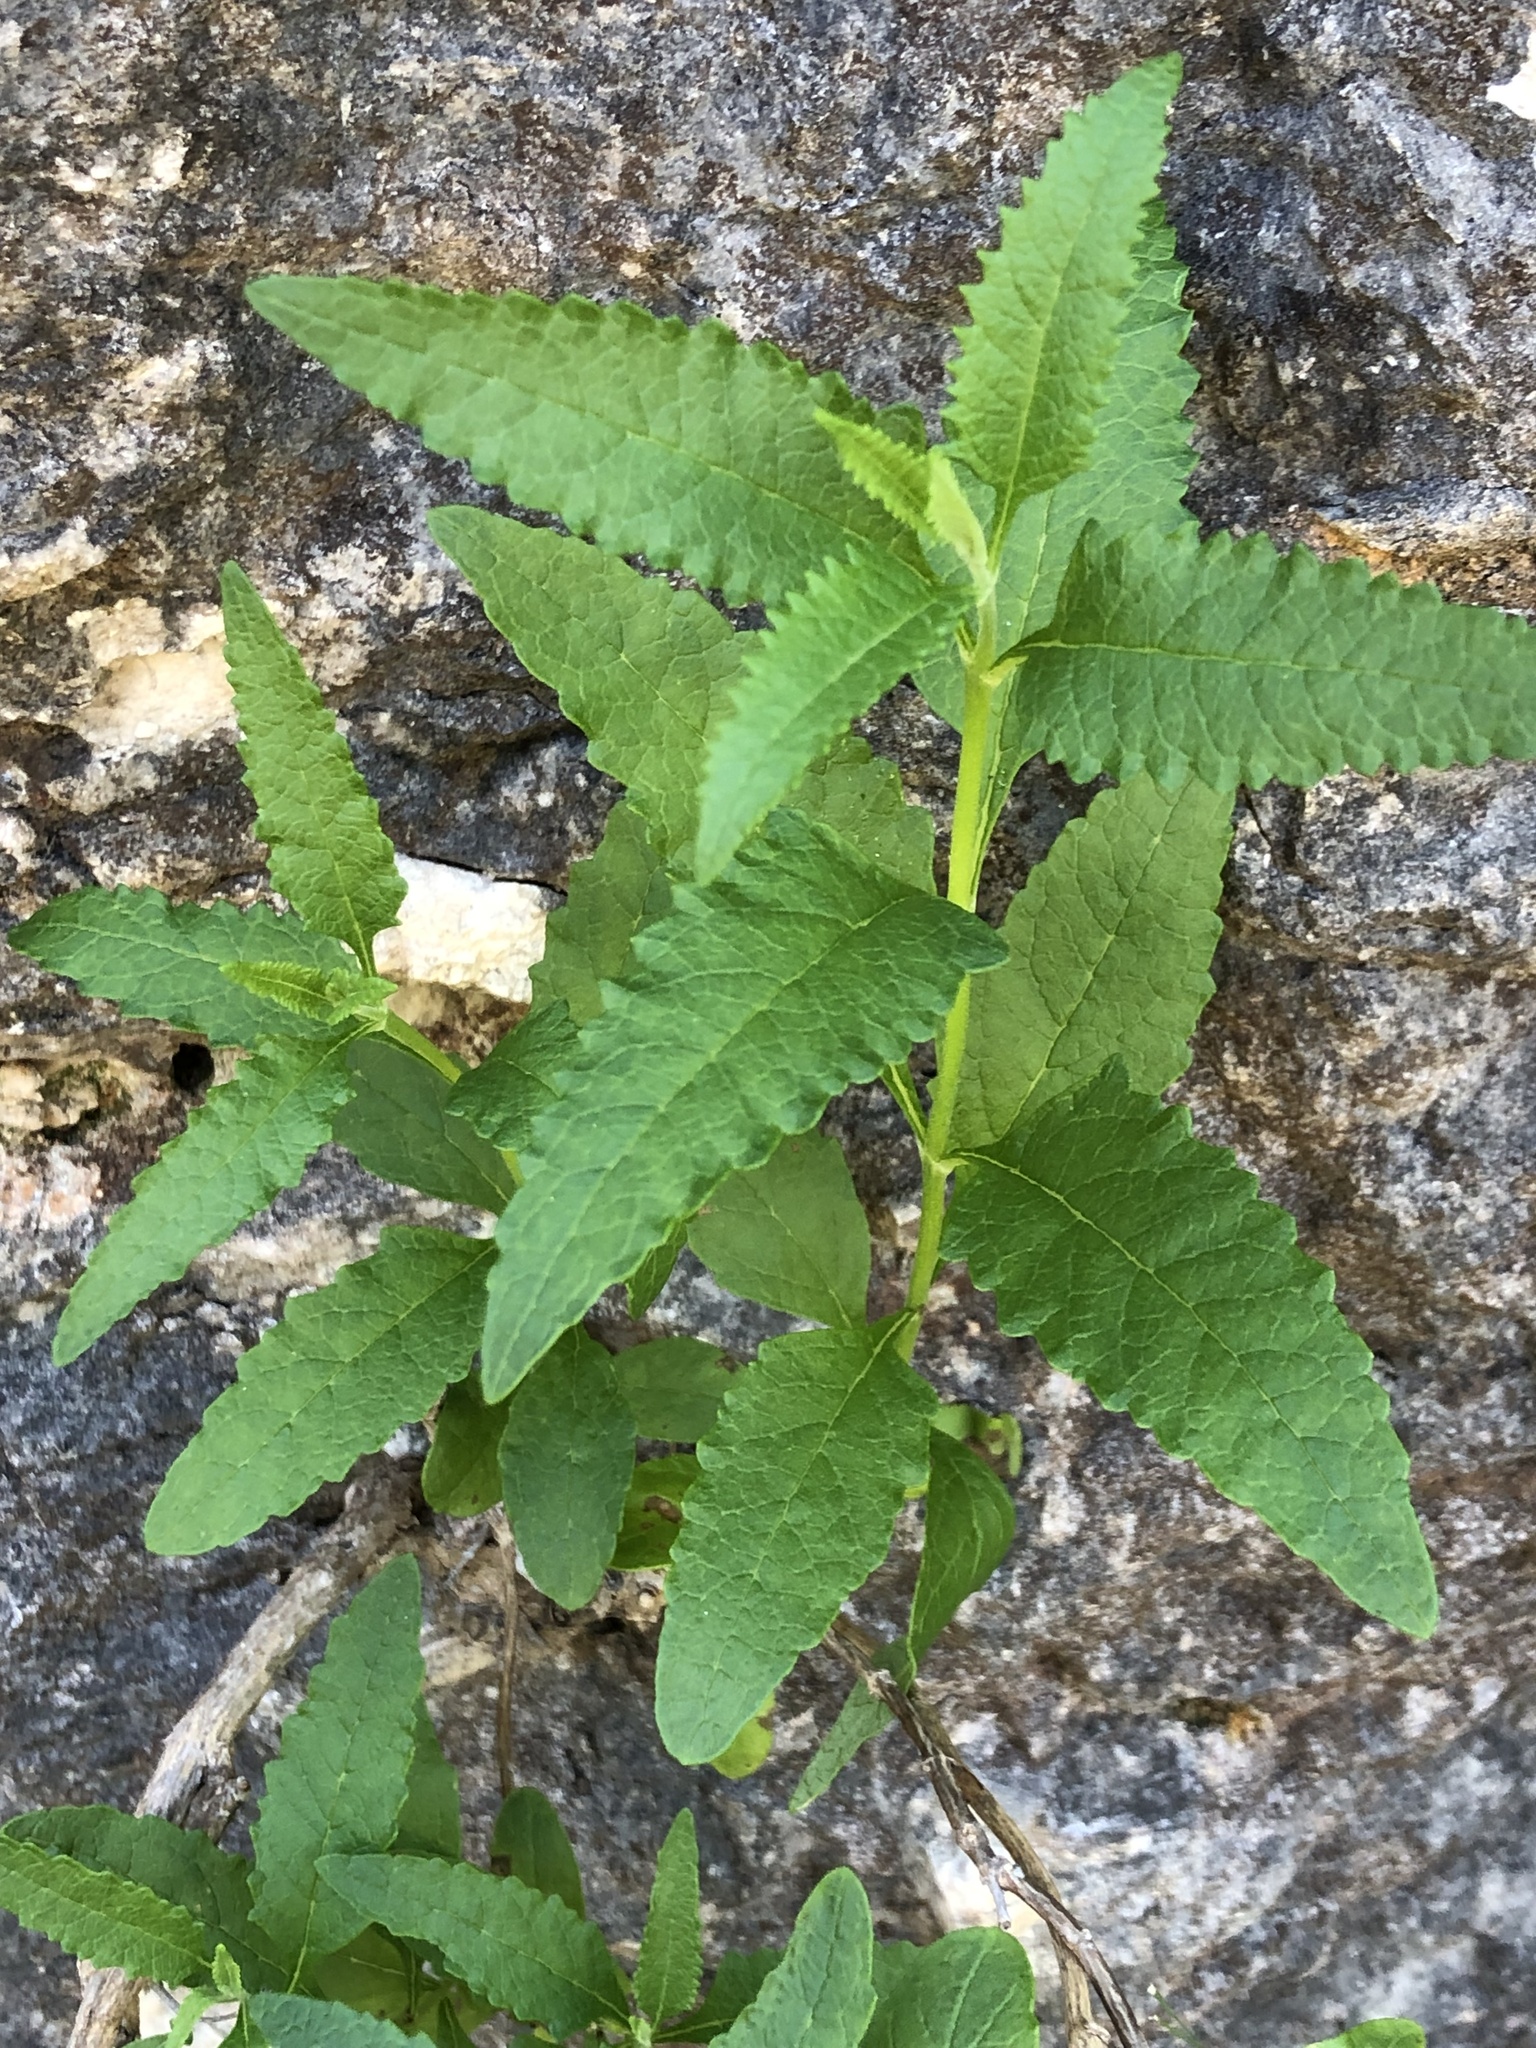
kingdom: Plantae
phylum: Tracheophyta
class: Magnoliopsida
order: Lamiales
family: Scrophulariaceae
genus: Buddleja
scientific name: Buddleja racemosa
